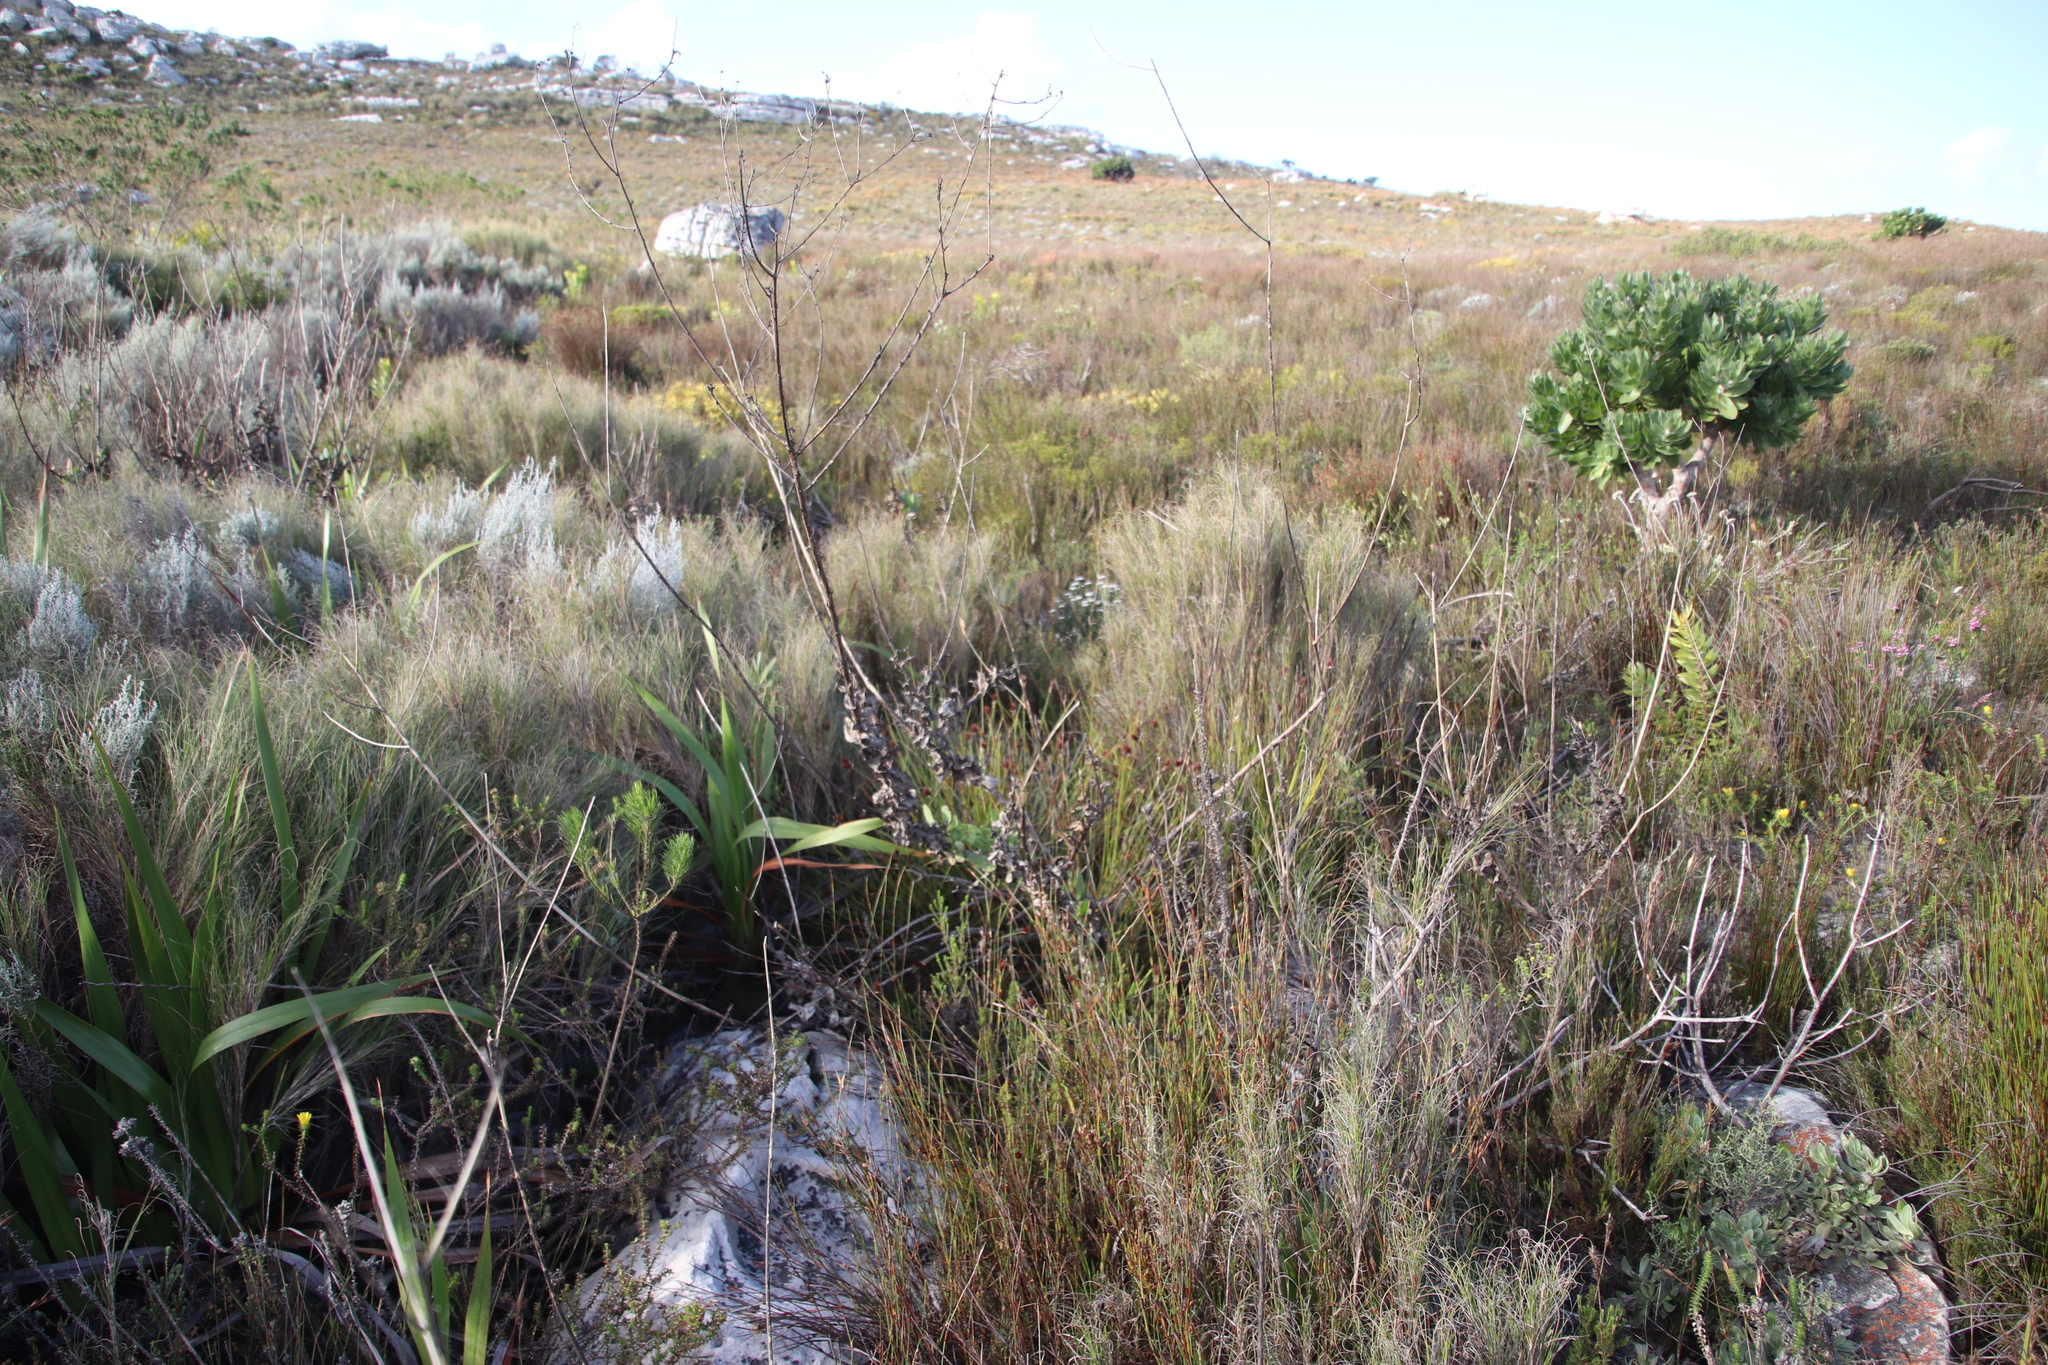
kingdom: Plantae
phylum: Tracheophyta
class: Magnoliopsida
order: Asterales
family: Asteraceae
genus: Othonna
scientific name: Othonna quinquedentata
